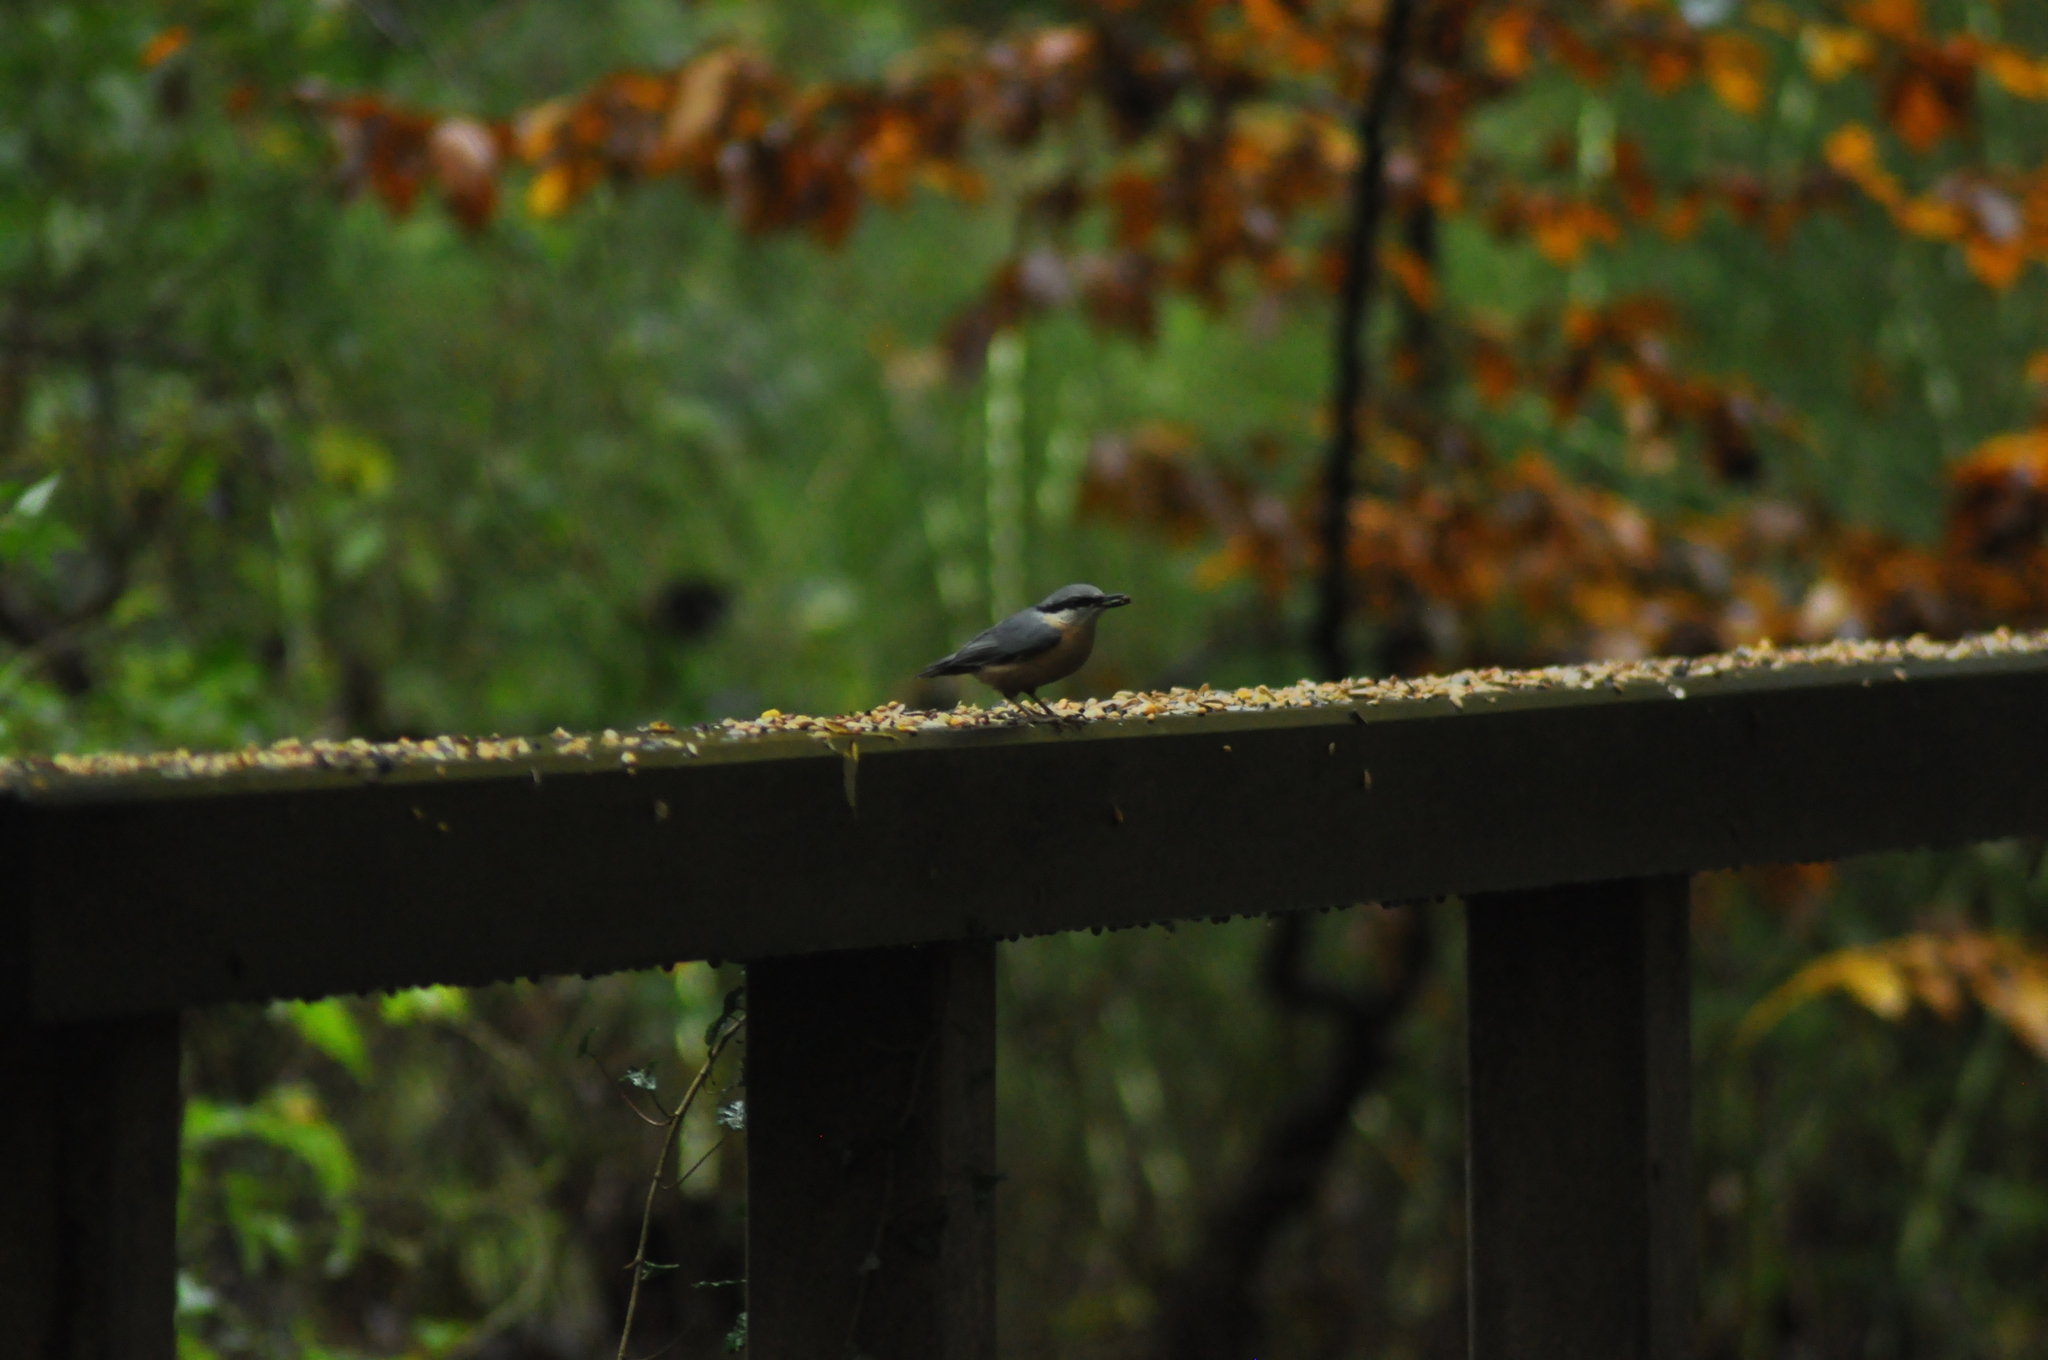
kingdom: Animalia
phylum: Chordata
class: Aves
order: Passeriformes
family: Sittidae
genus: Sitta
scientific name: Sitta europaea
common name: Eurasian nuthatch
